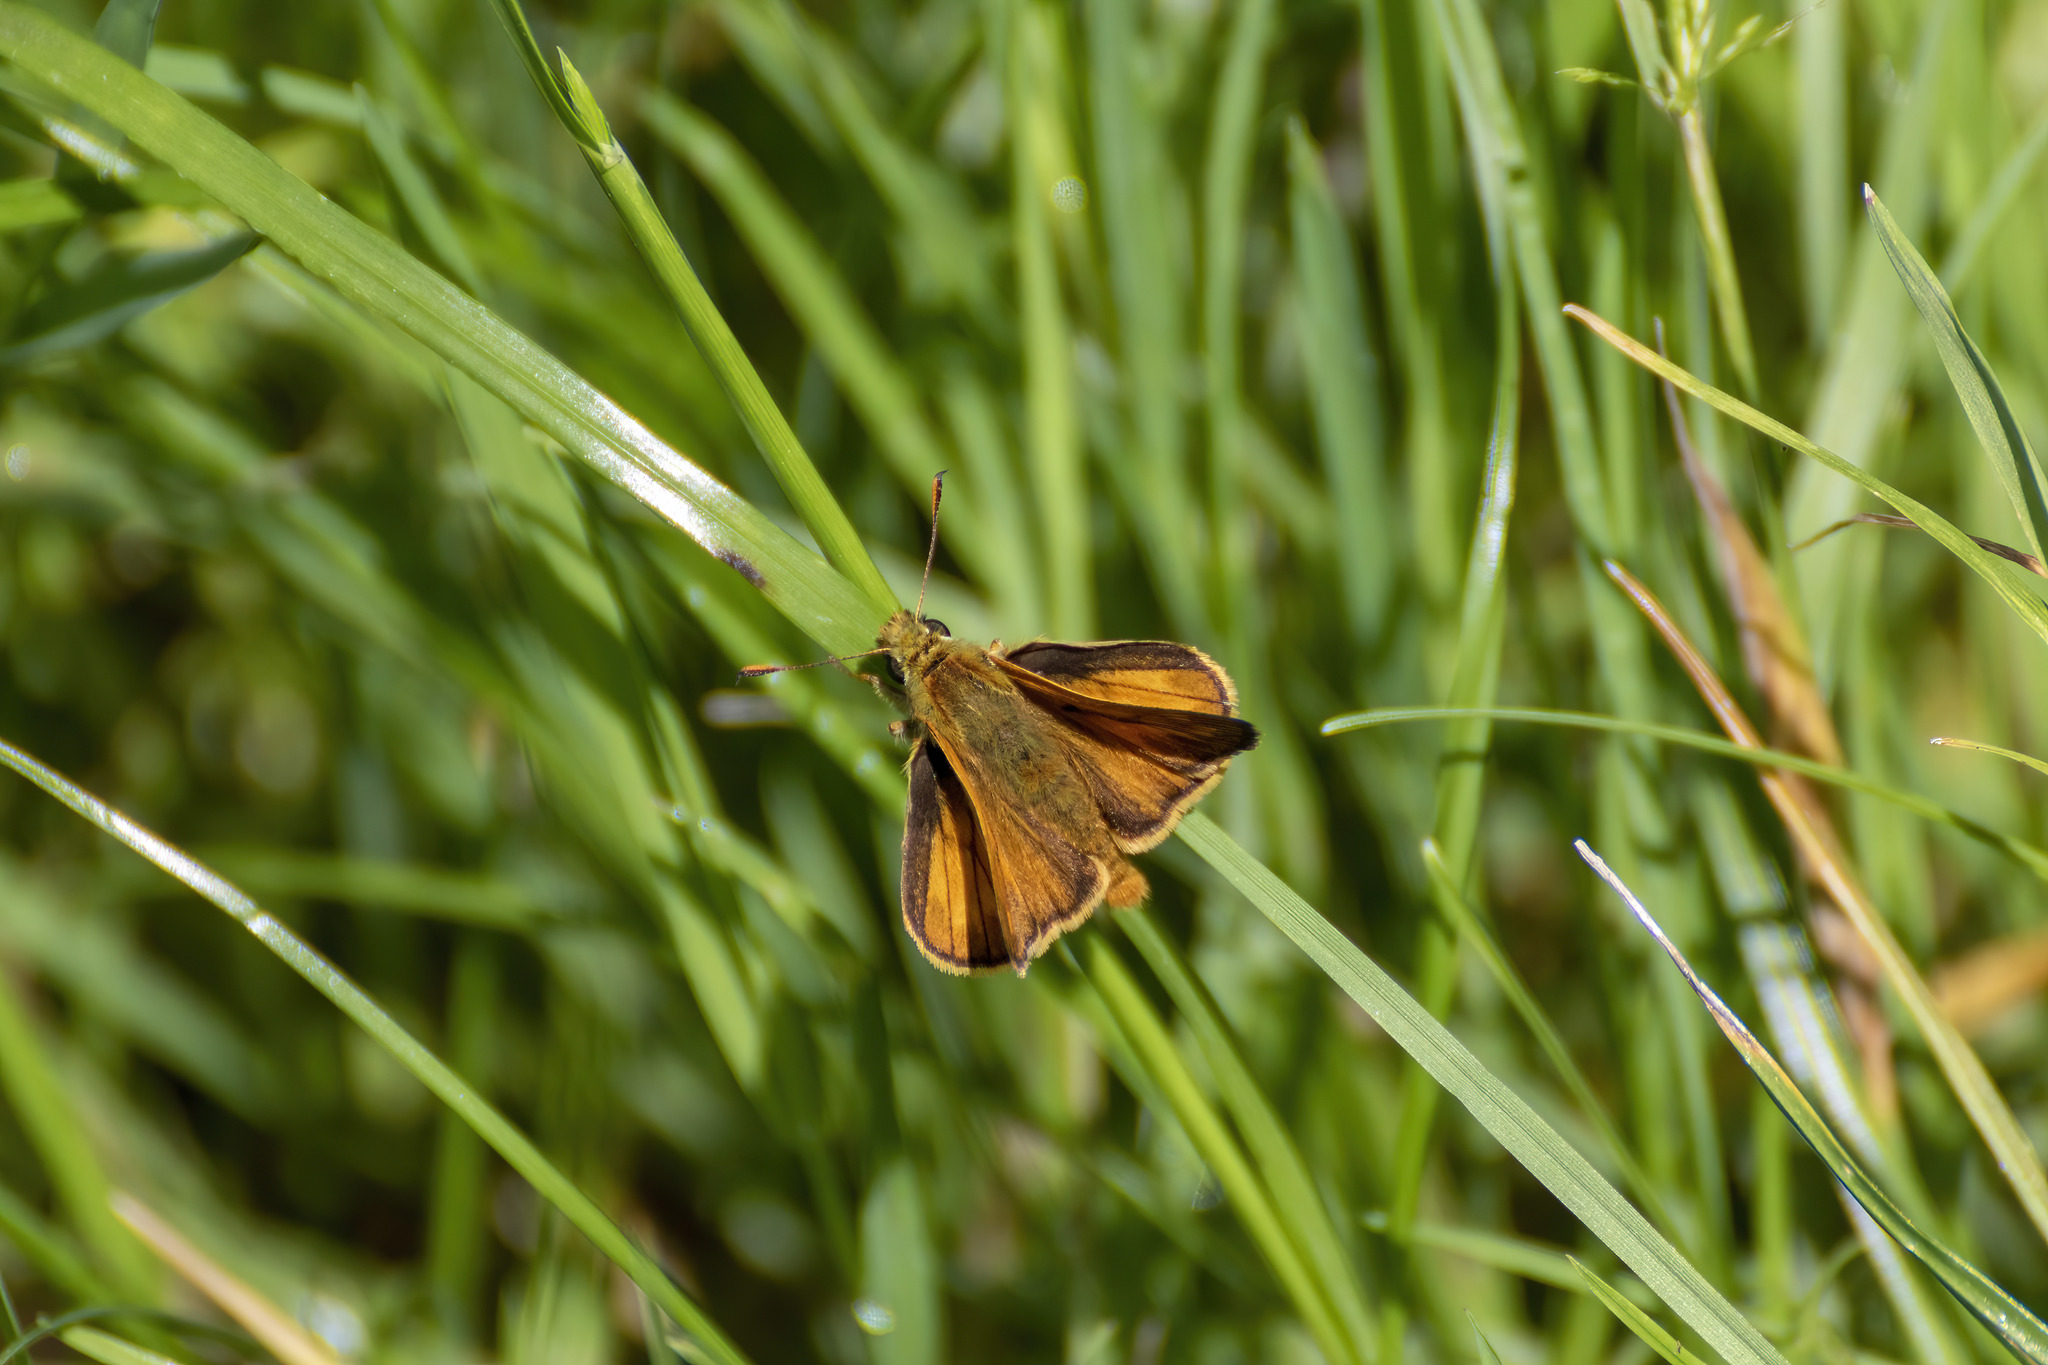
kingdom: Animalia
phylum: Arthropoda
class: Insecta
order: Lepidoptera
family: Hesperiidae
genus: Ochlodes
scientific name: Ochlodes venata
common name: Large skipper
